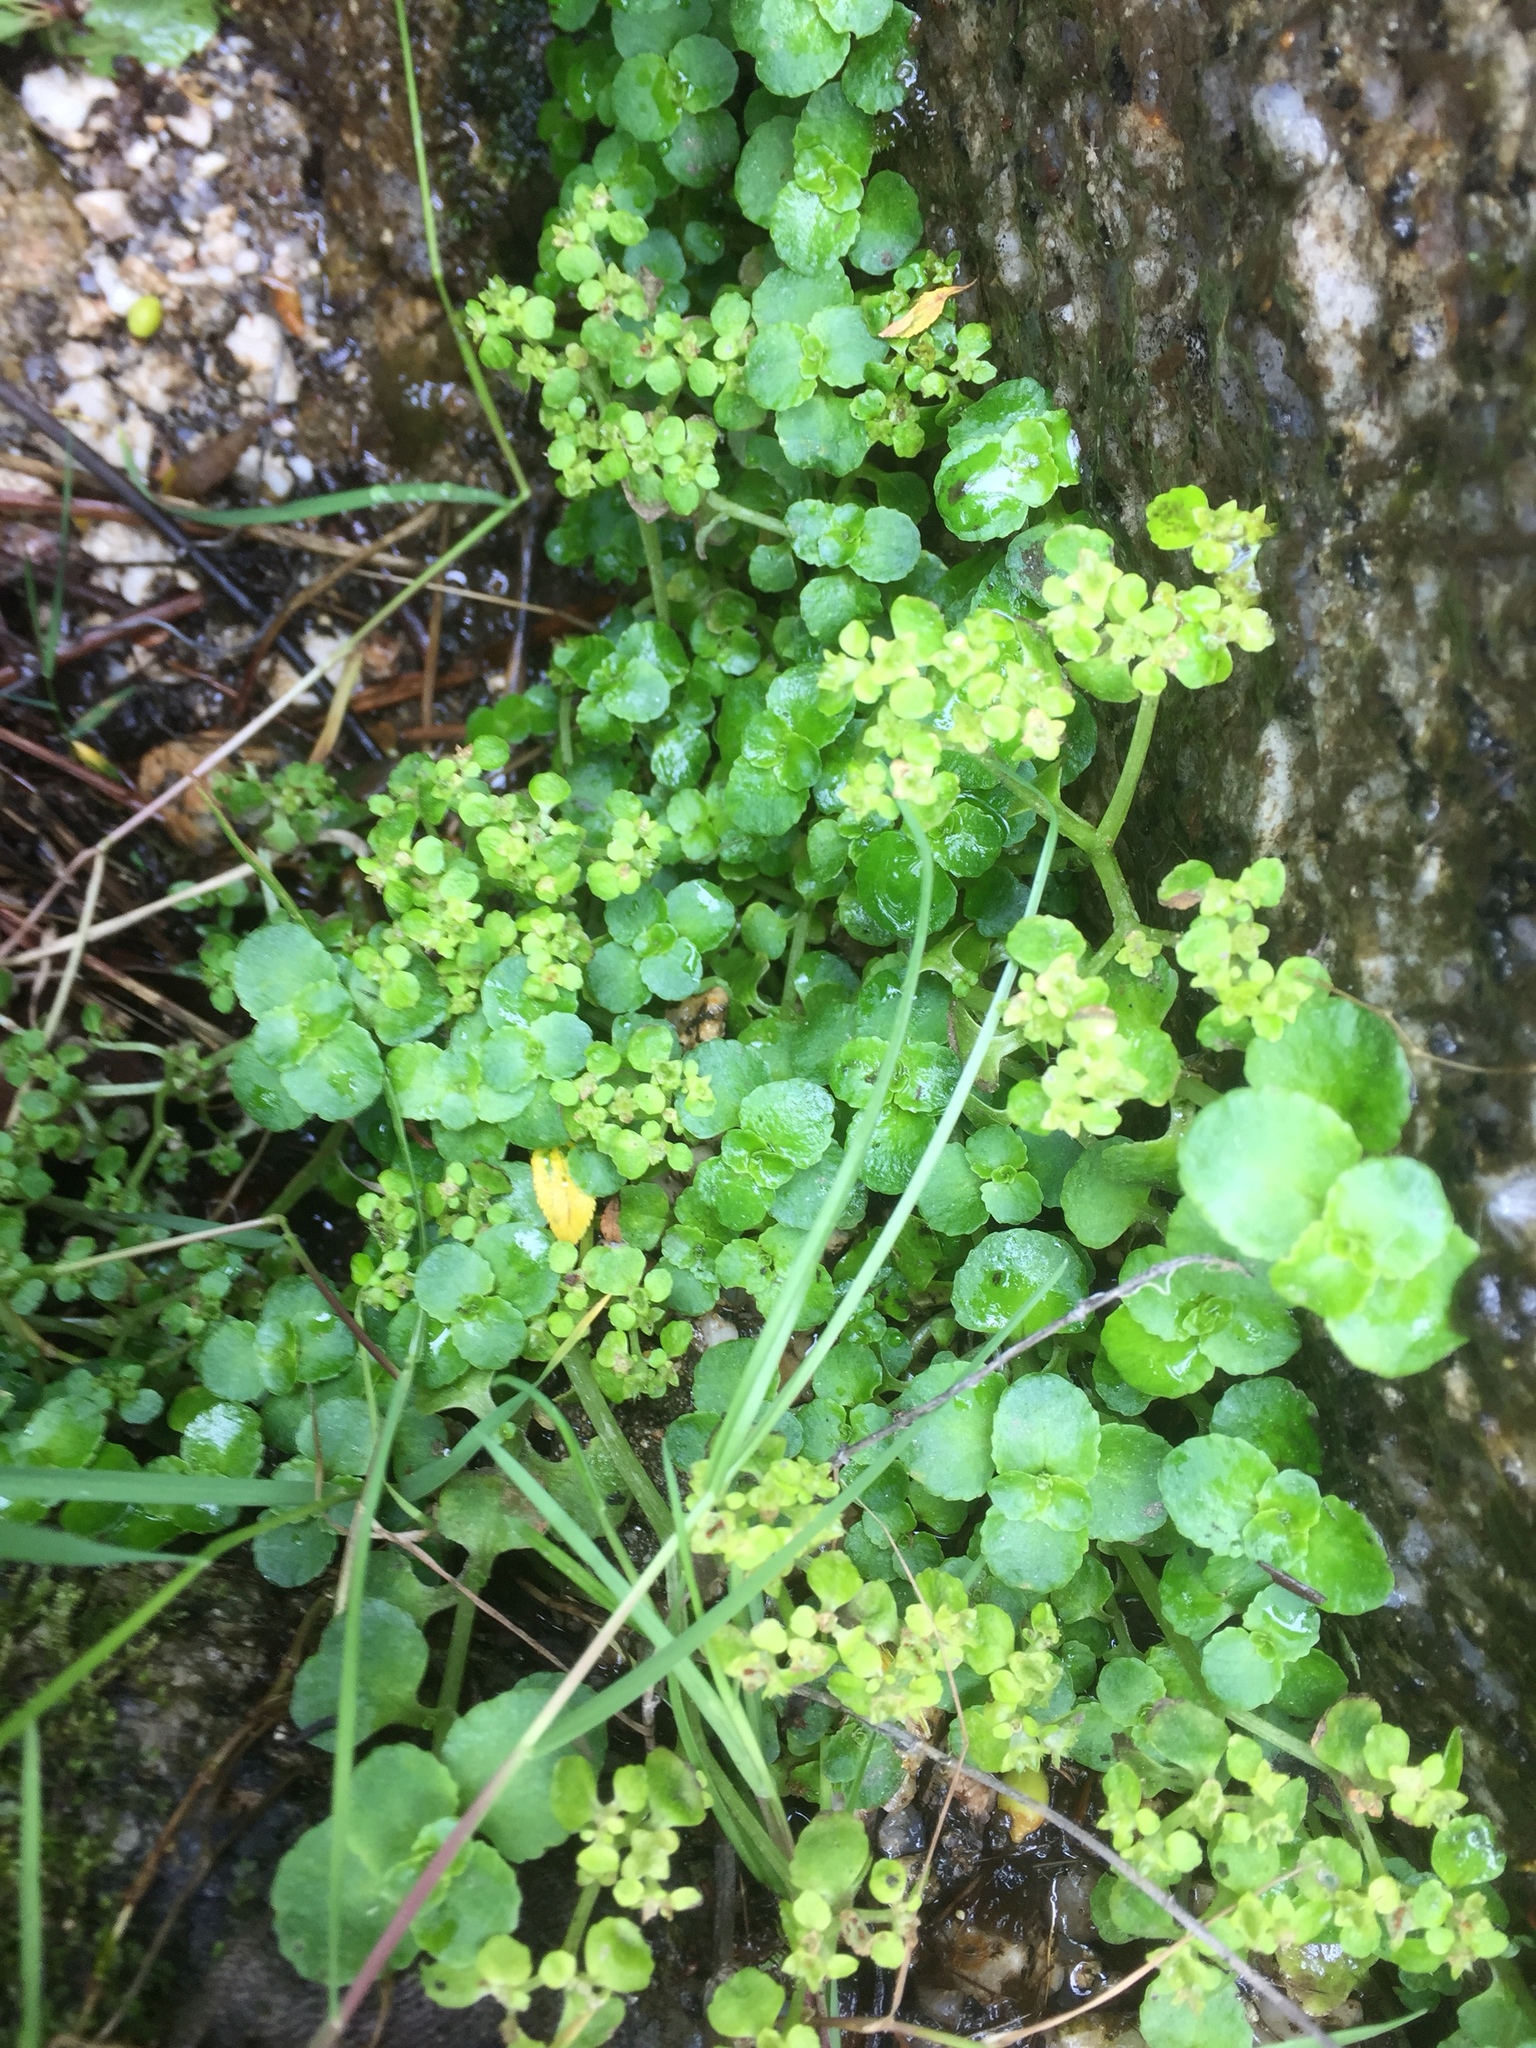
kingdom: Plantae
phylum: Tracheophyta
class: Magnoliopsida
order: Saxifragales
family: Saxifragaceae
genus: Chrysosplenium
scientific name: Chrysosplenium oppositifolium
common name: Opposite-leaved golden-saxifrage
